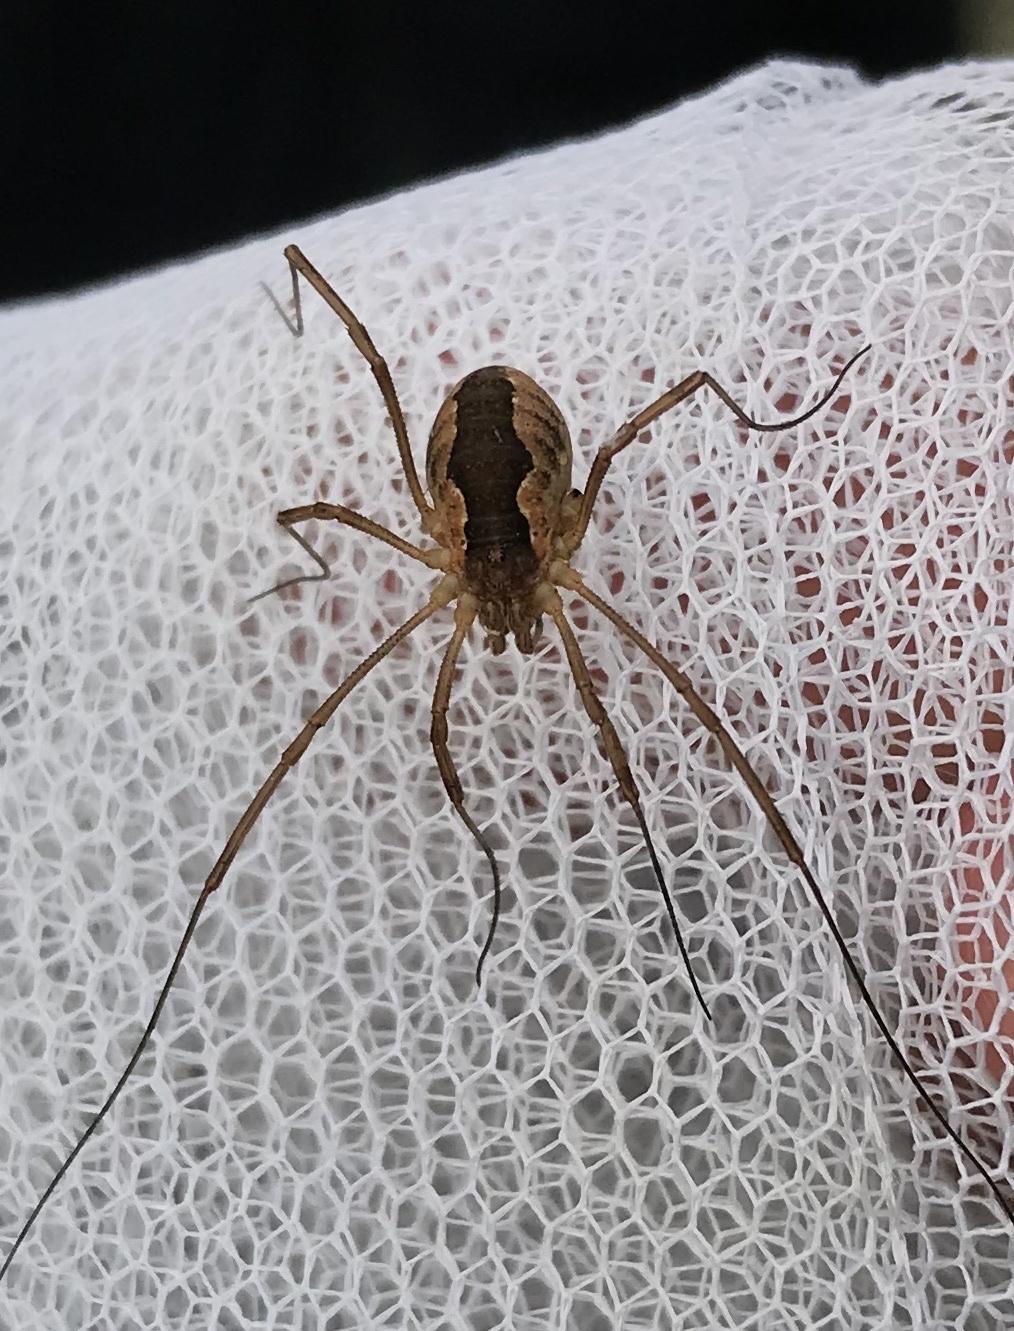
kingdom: Animalia
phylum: Arthropoda
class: Arachnida
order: Opiliones
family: Phalangiidae
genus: Mitopus
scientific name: Mitopus morio
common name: Saddleback harvestman
